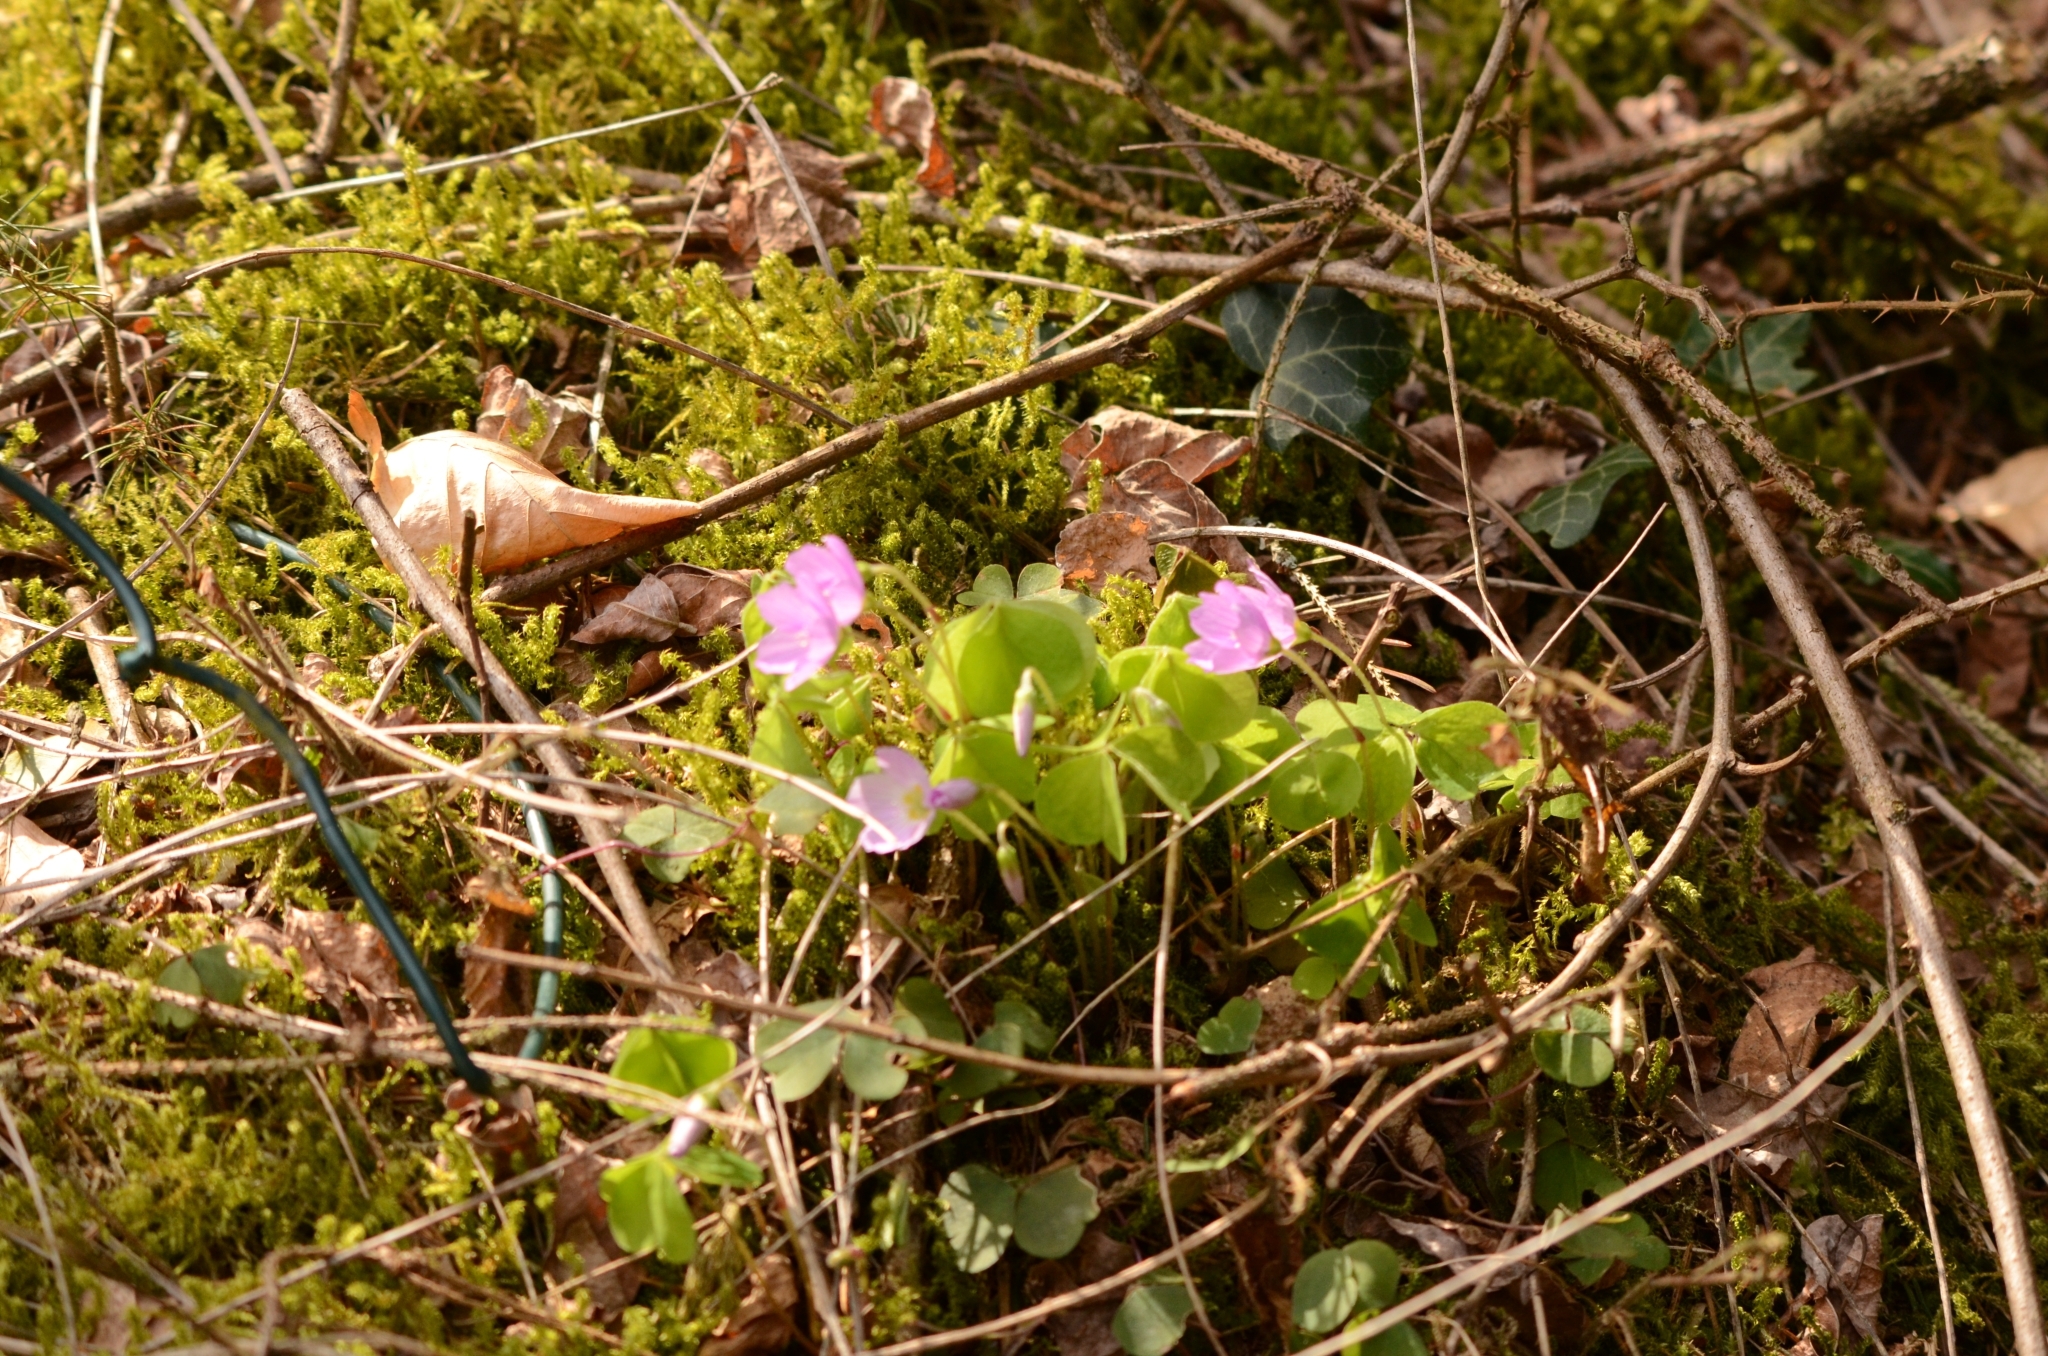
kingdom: Plantae
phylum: Tracheophyta
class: Magnoliopsida
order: Oxalidales
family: Oxalidaceae
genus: Oxalis
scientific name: Oxalis acetosella
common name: Wood-sorrel
